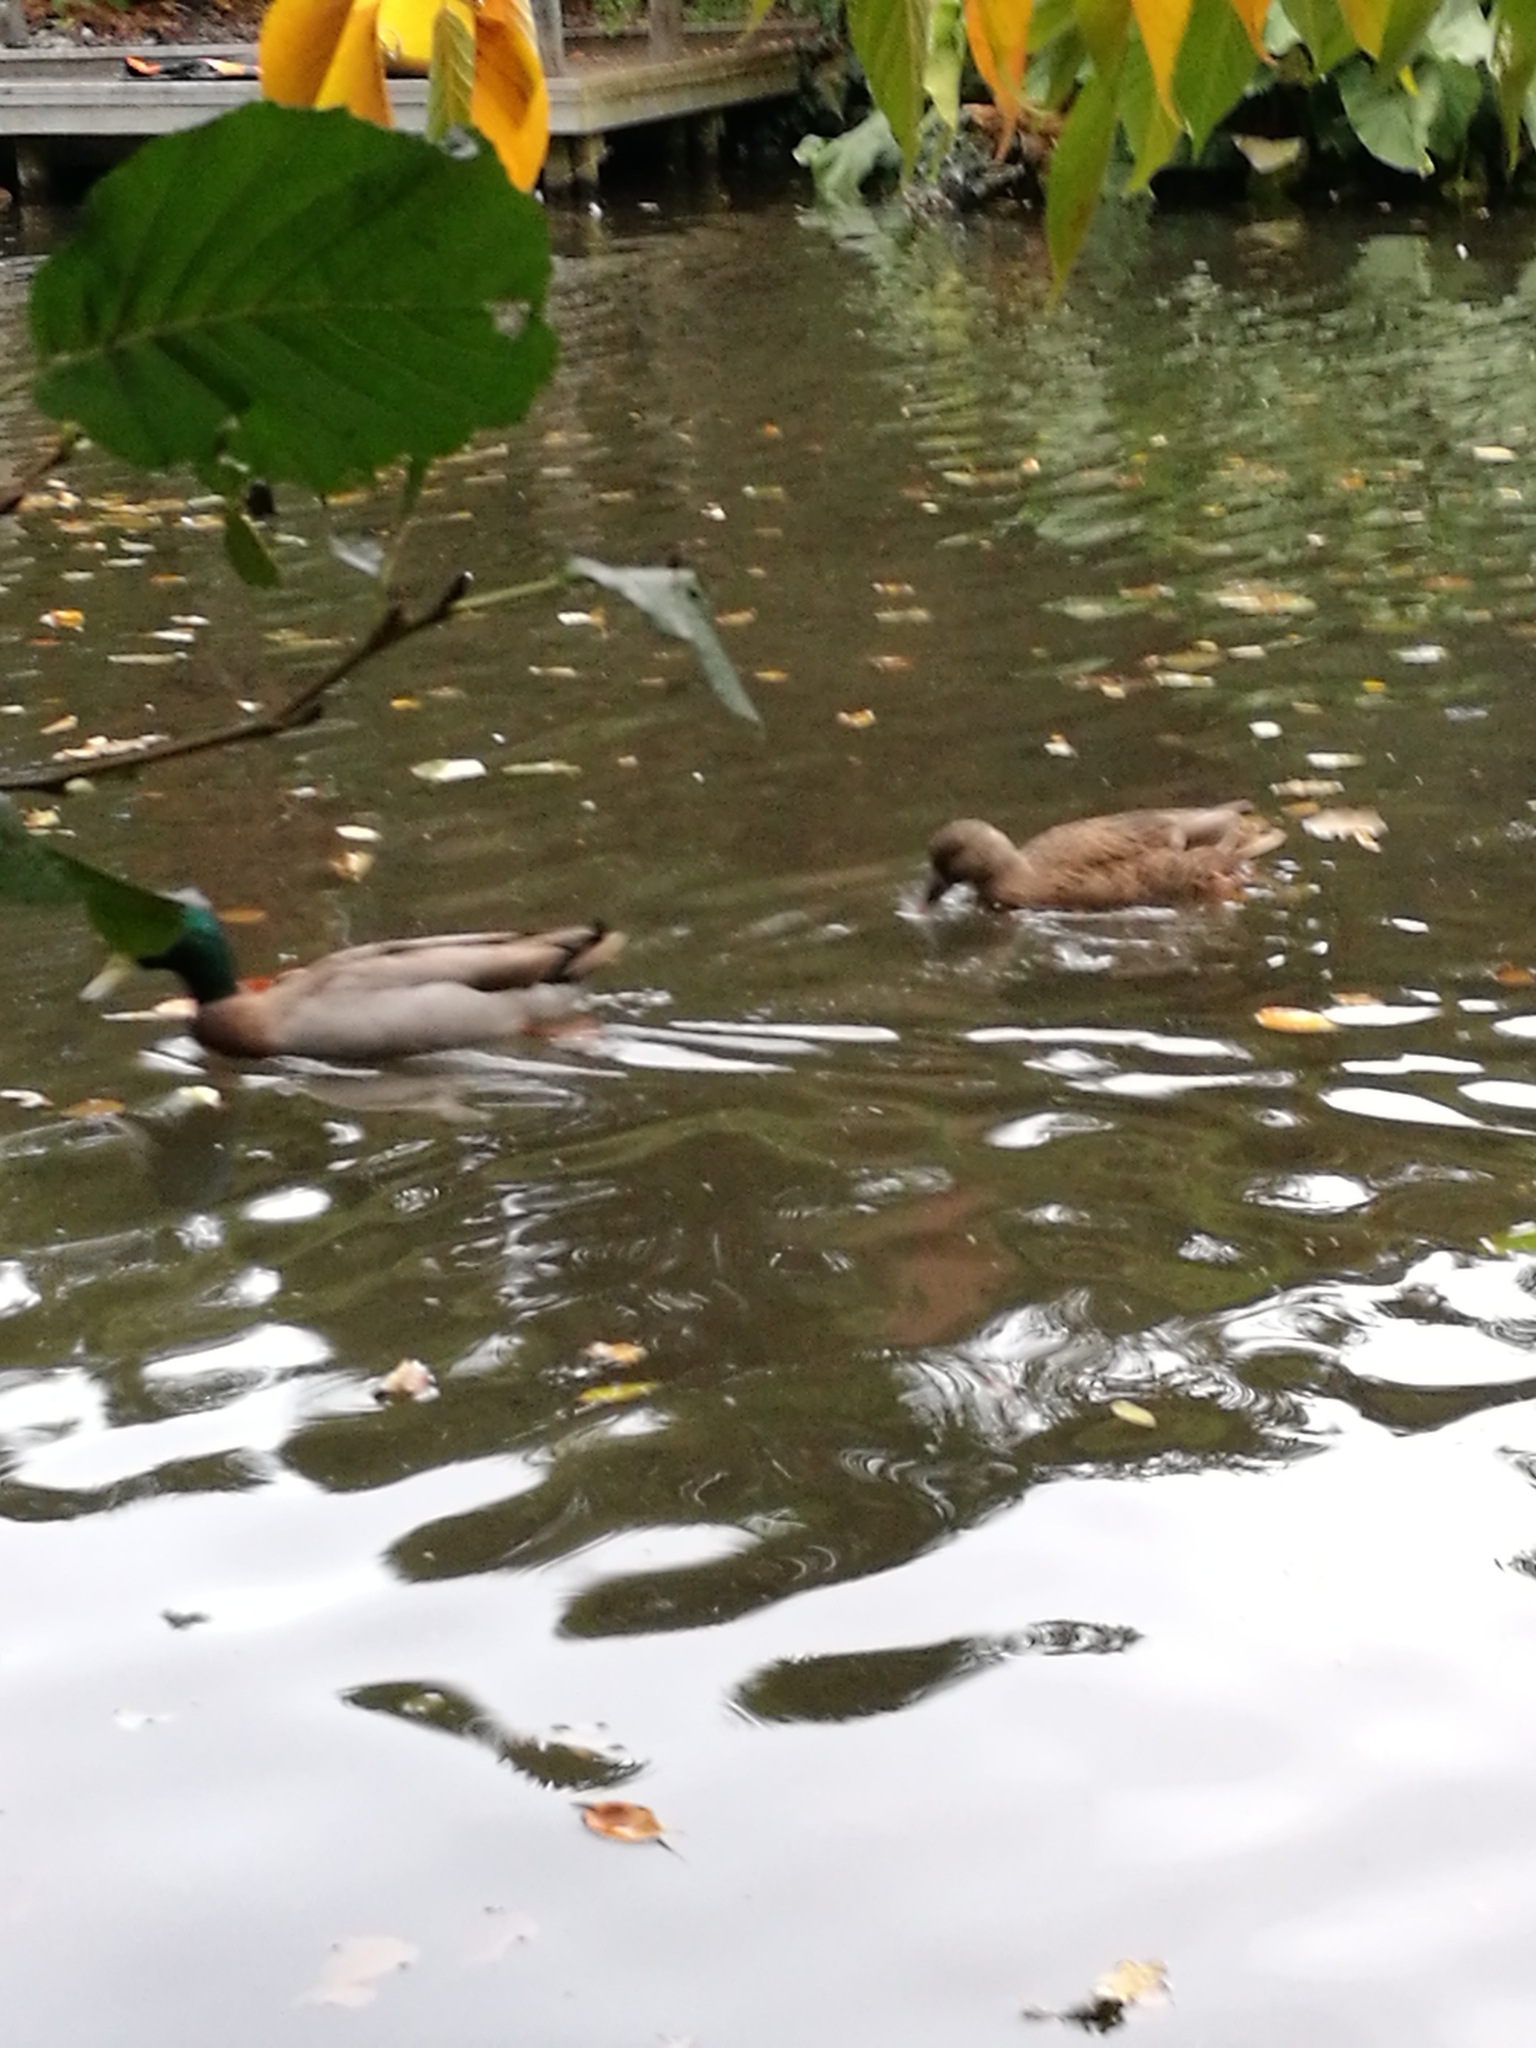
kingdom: Animalia
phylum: Chordata
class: Aves
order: Anseriformes
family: Anatidae
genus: Anas
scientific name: Anas platyrhynchos
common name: Mallard
